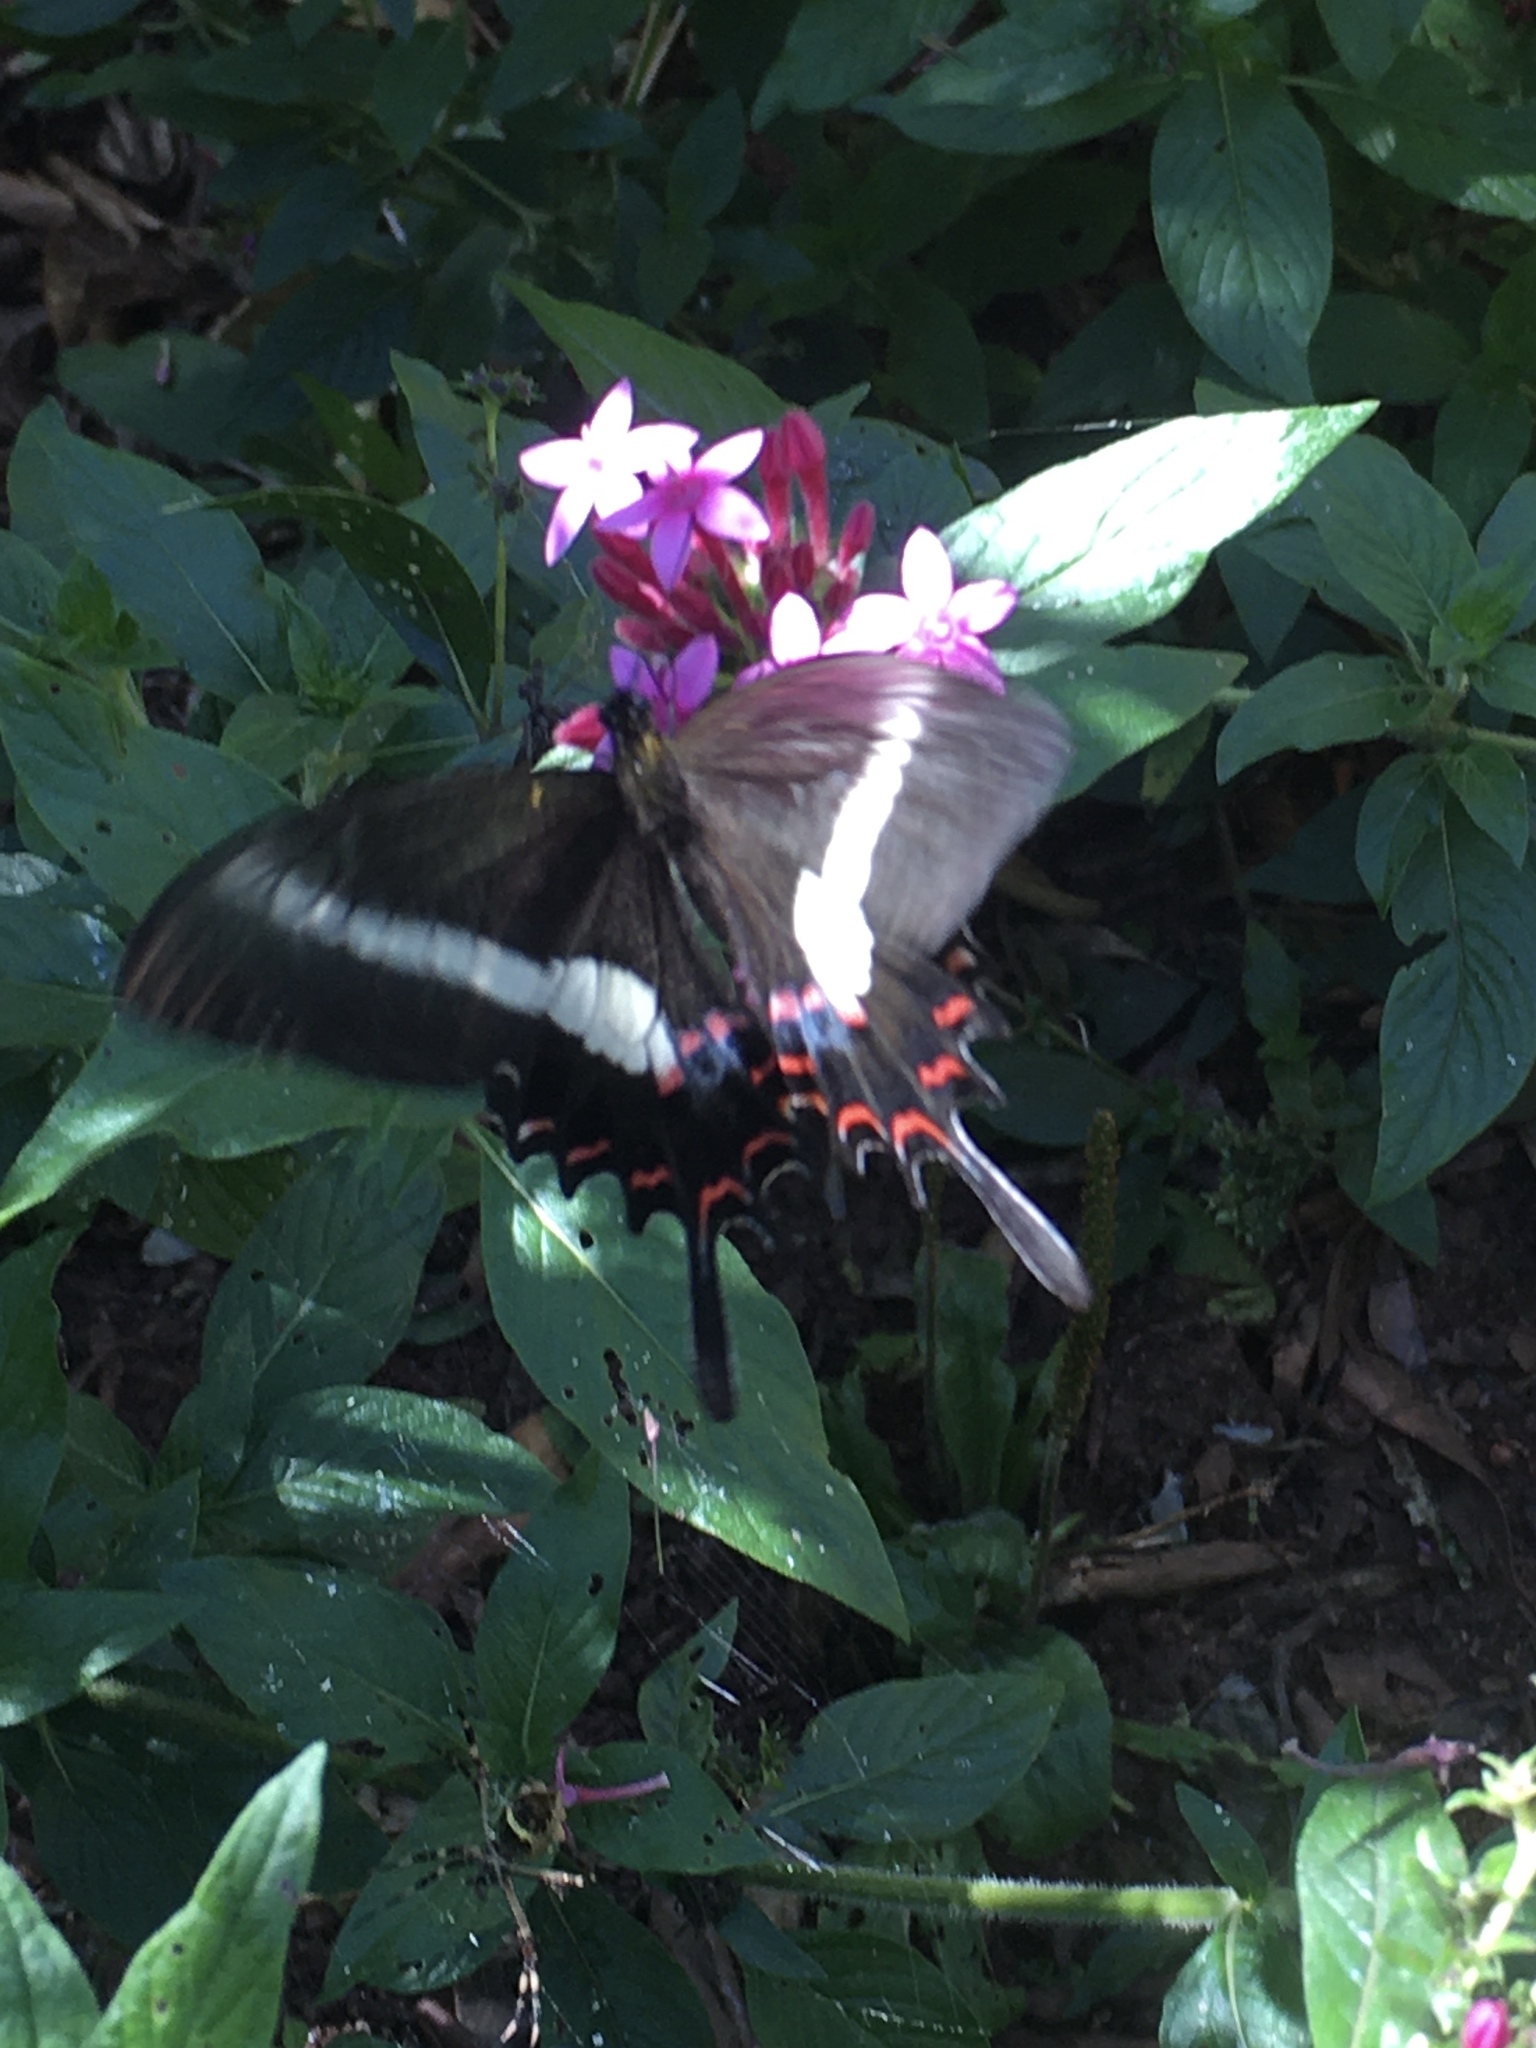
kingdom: Animalia
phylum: Arthropoda
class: Insecta
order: Lepidoptera
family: Papilionidae
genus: Heraclides
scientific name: Heraclides hectorides
